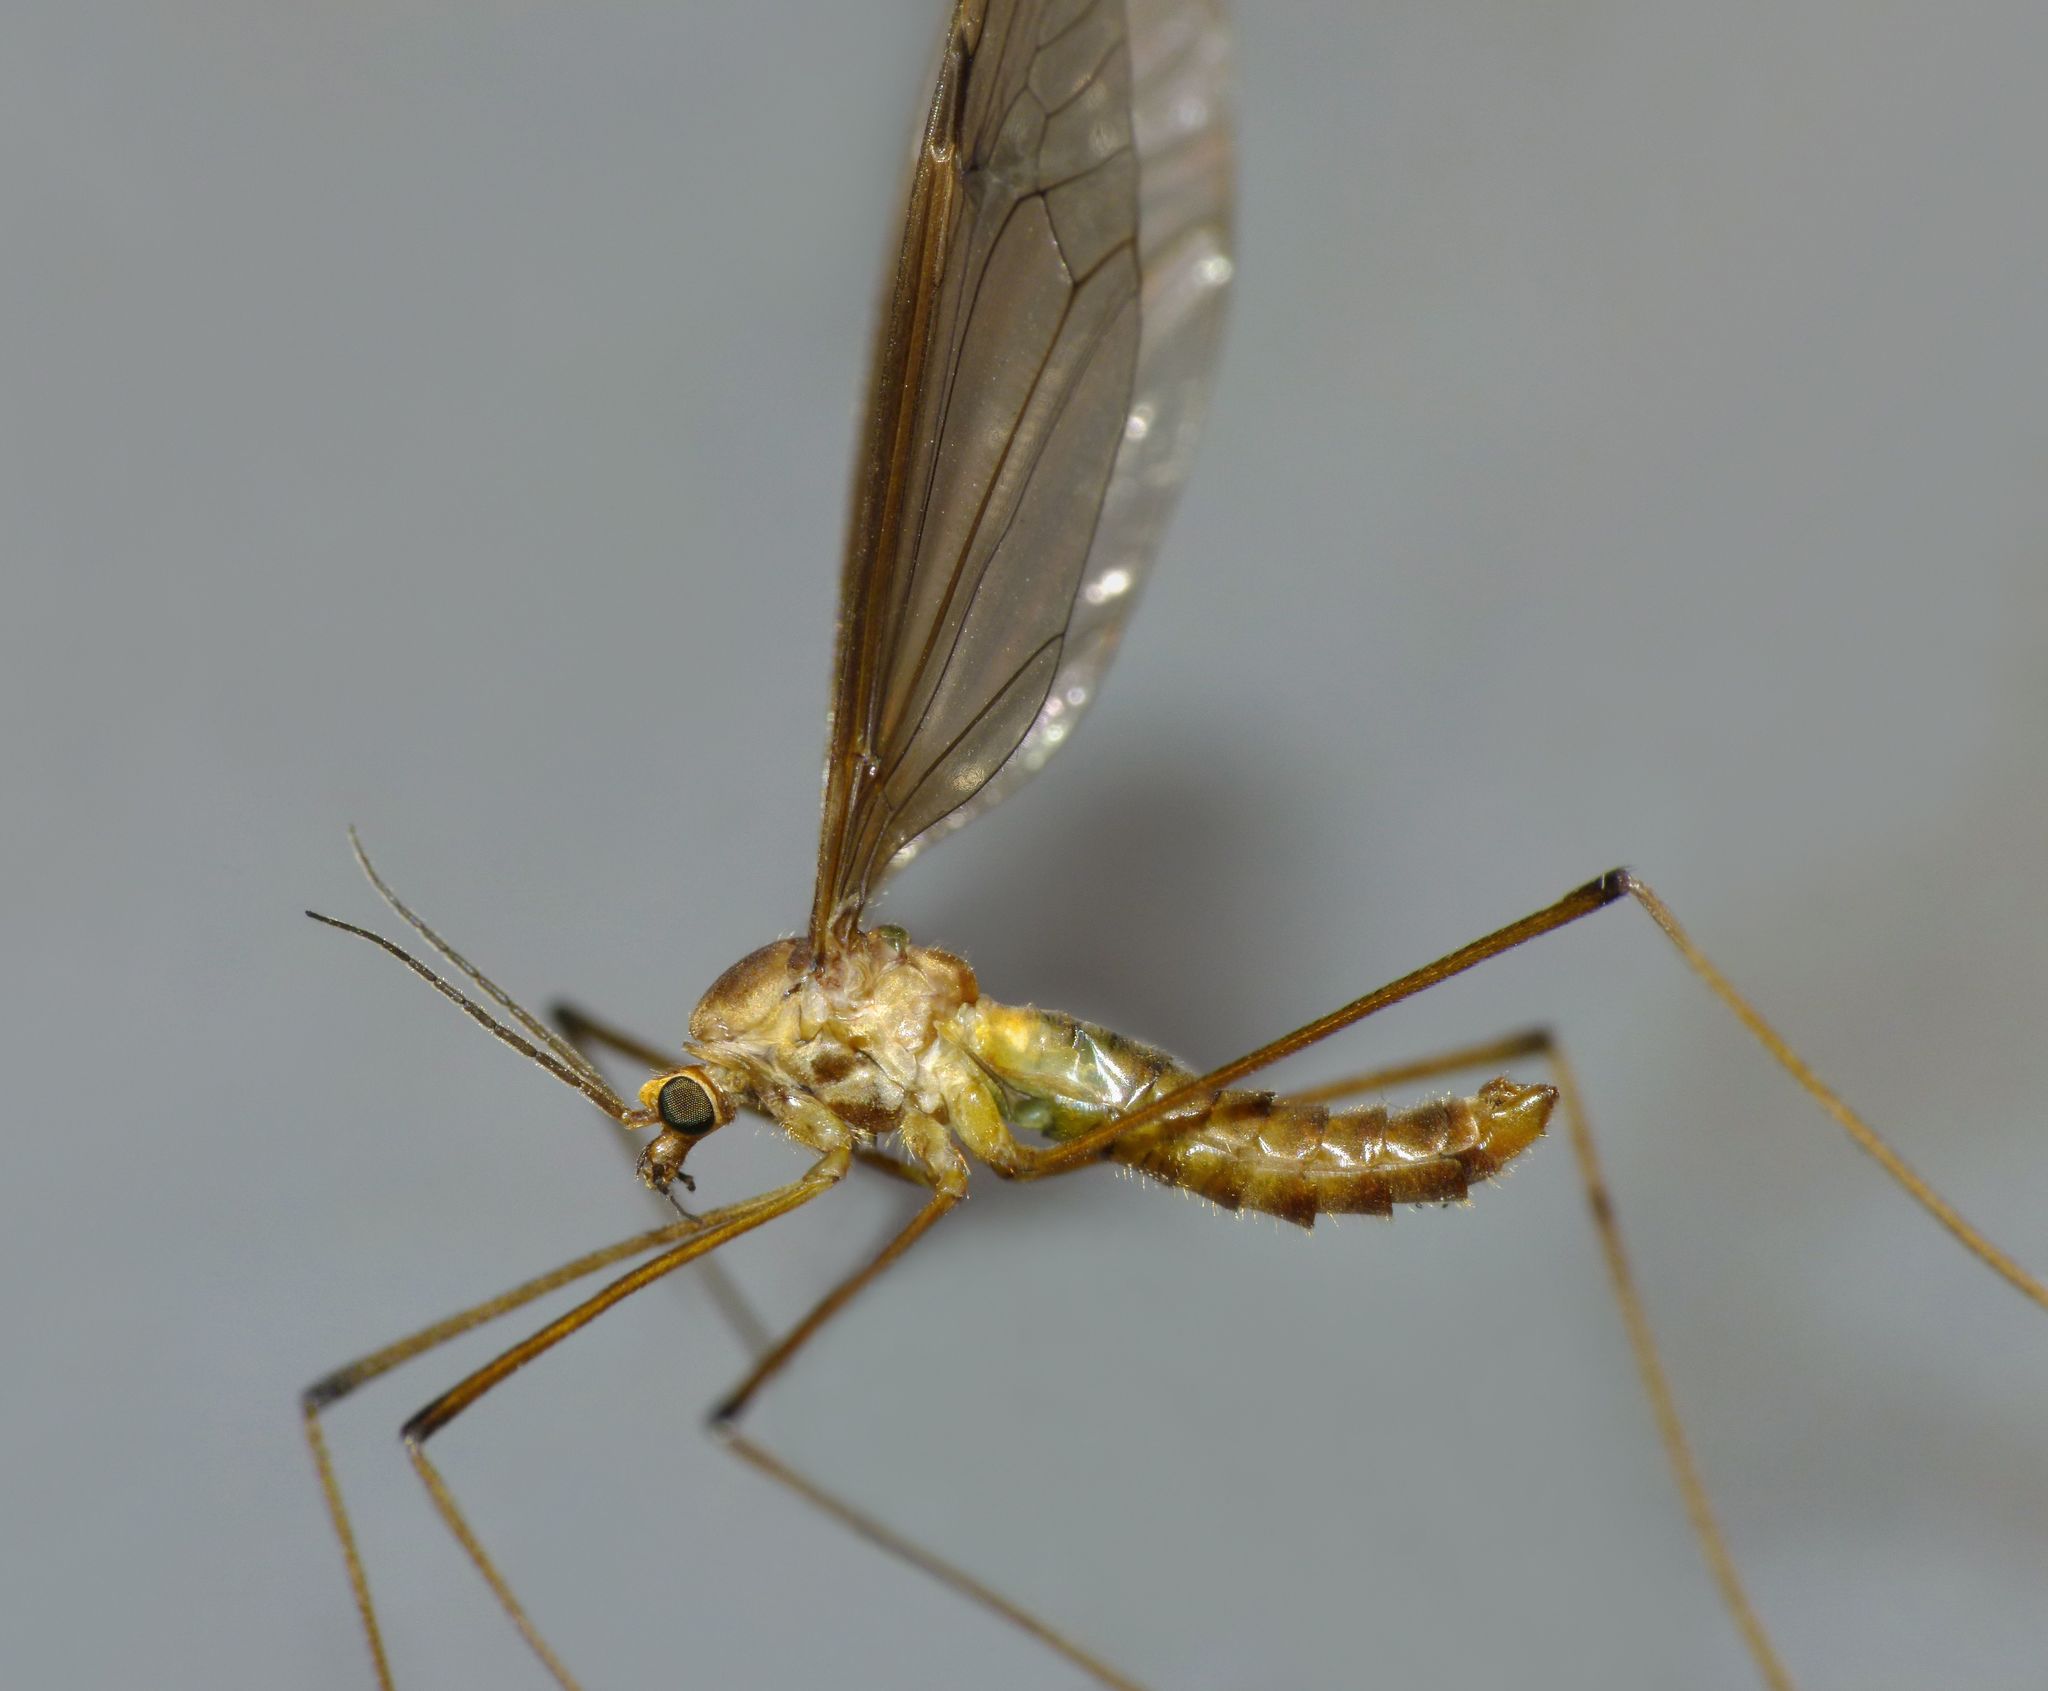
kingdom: Animalia
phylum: Arthropoda
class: Insecta
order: Diptera
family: Tipulidae
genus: Leptotarsus
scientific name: Leptotarsus mesocerus
